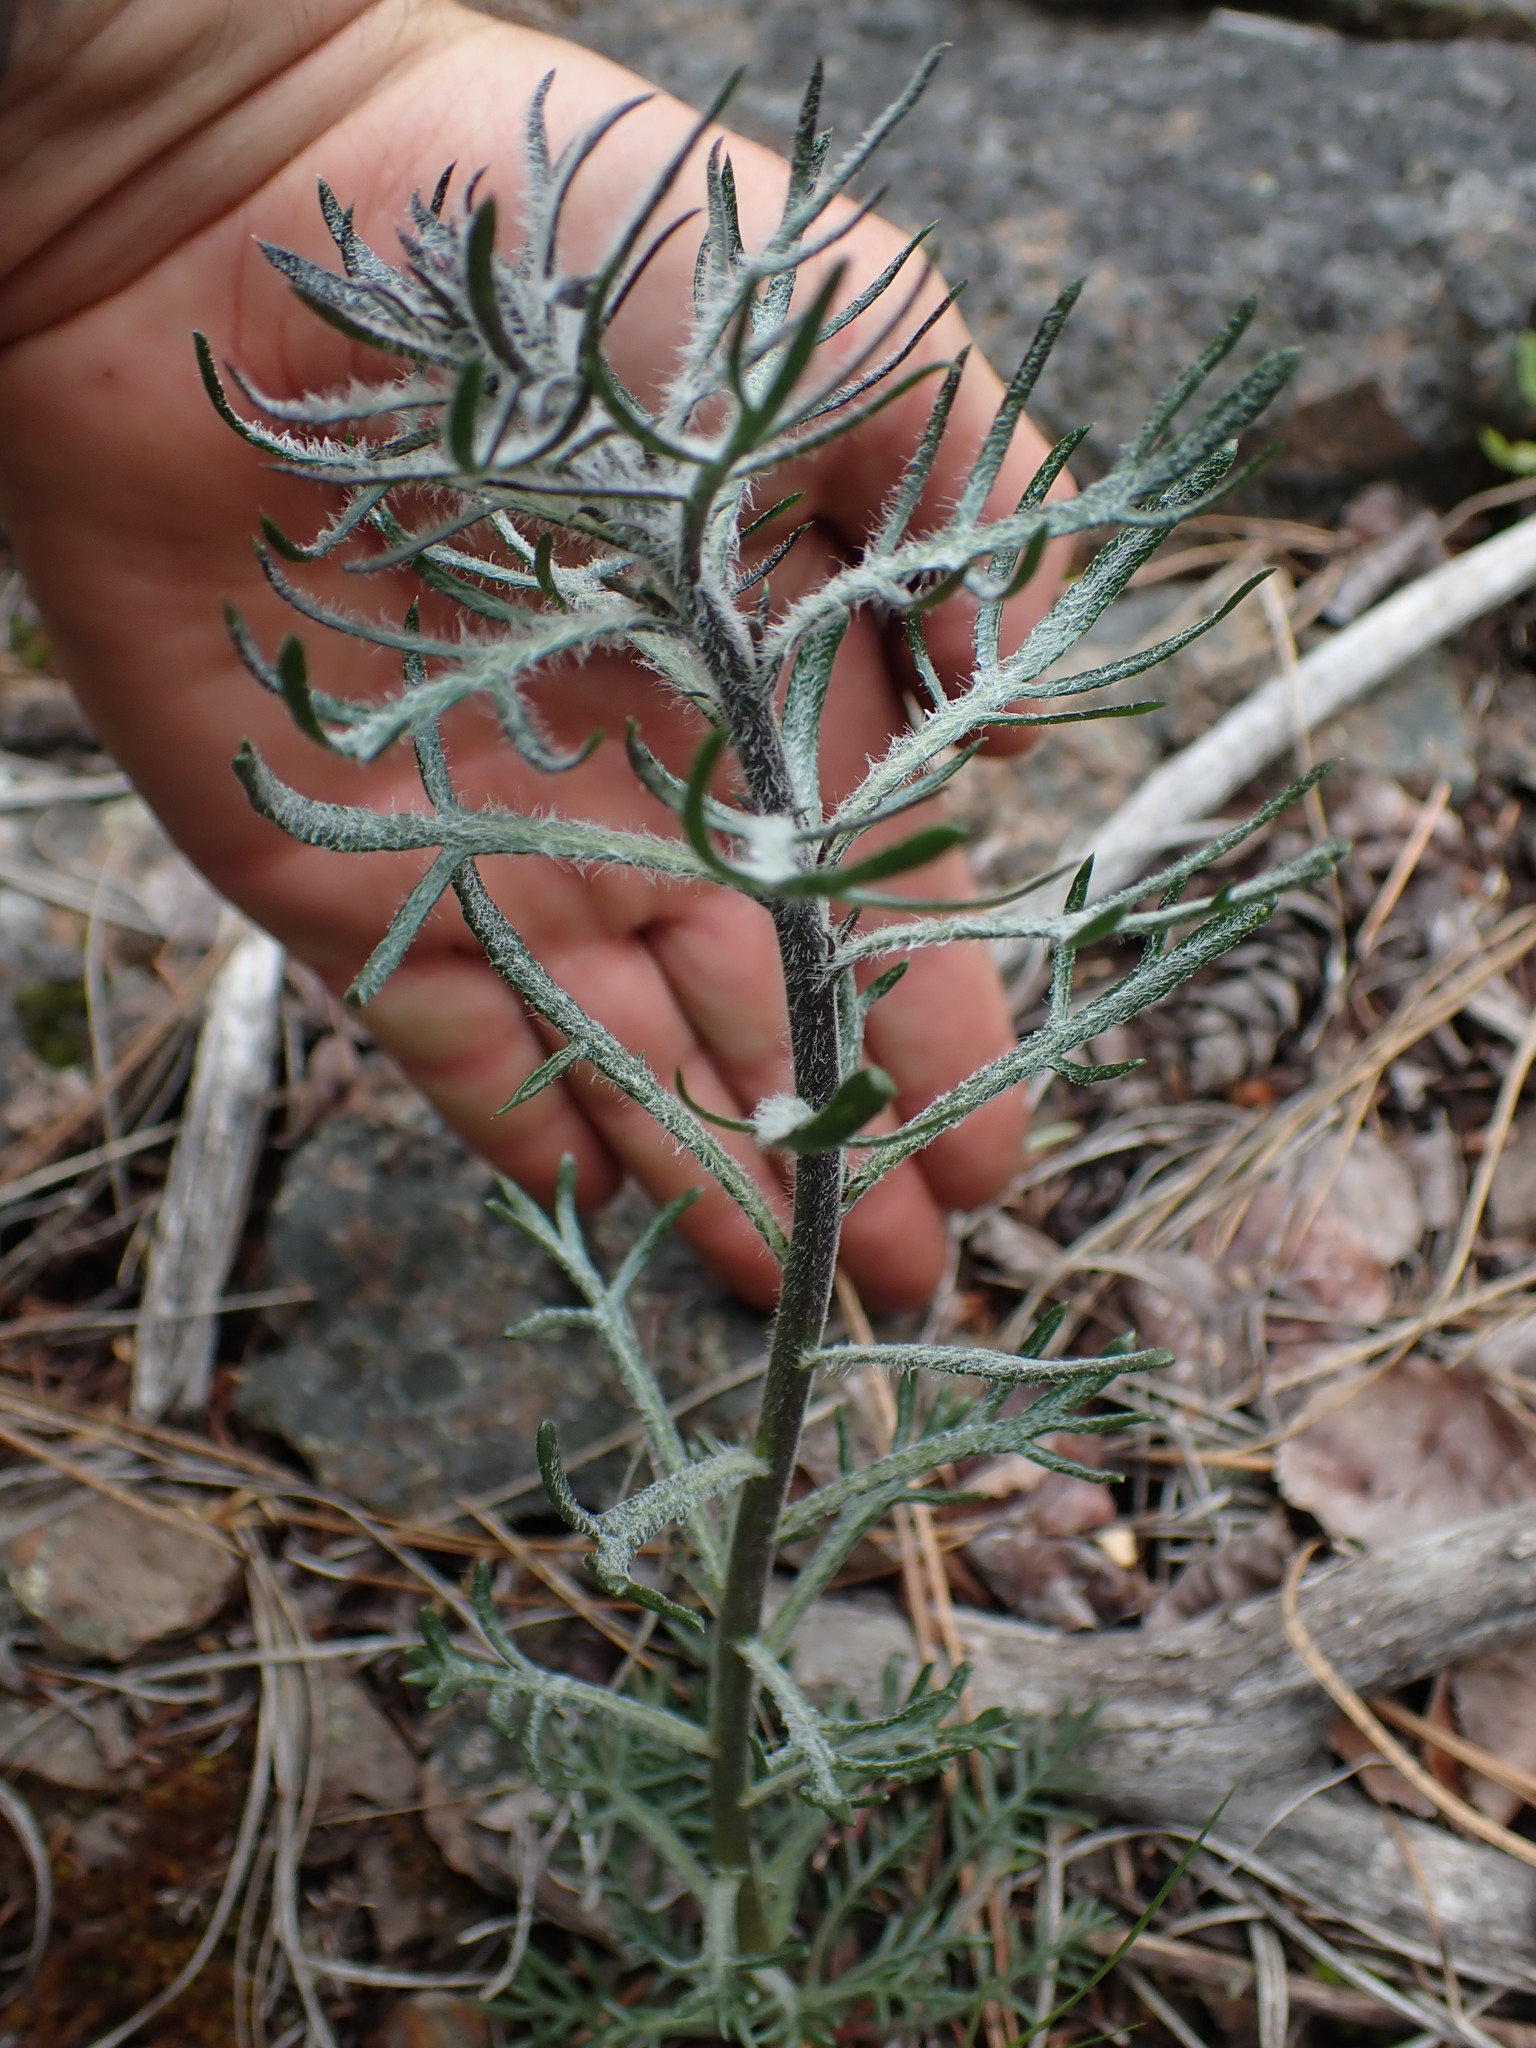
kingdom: Plantae
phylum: Tracheophyta
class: Magnoliopsida
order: Ericales
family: Polemoniaceae
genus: Ipomopsis
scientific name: Ipomopsis aggregata
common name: Scarlet gilia
